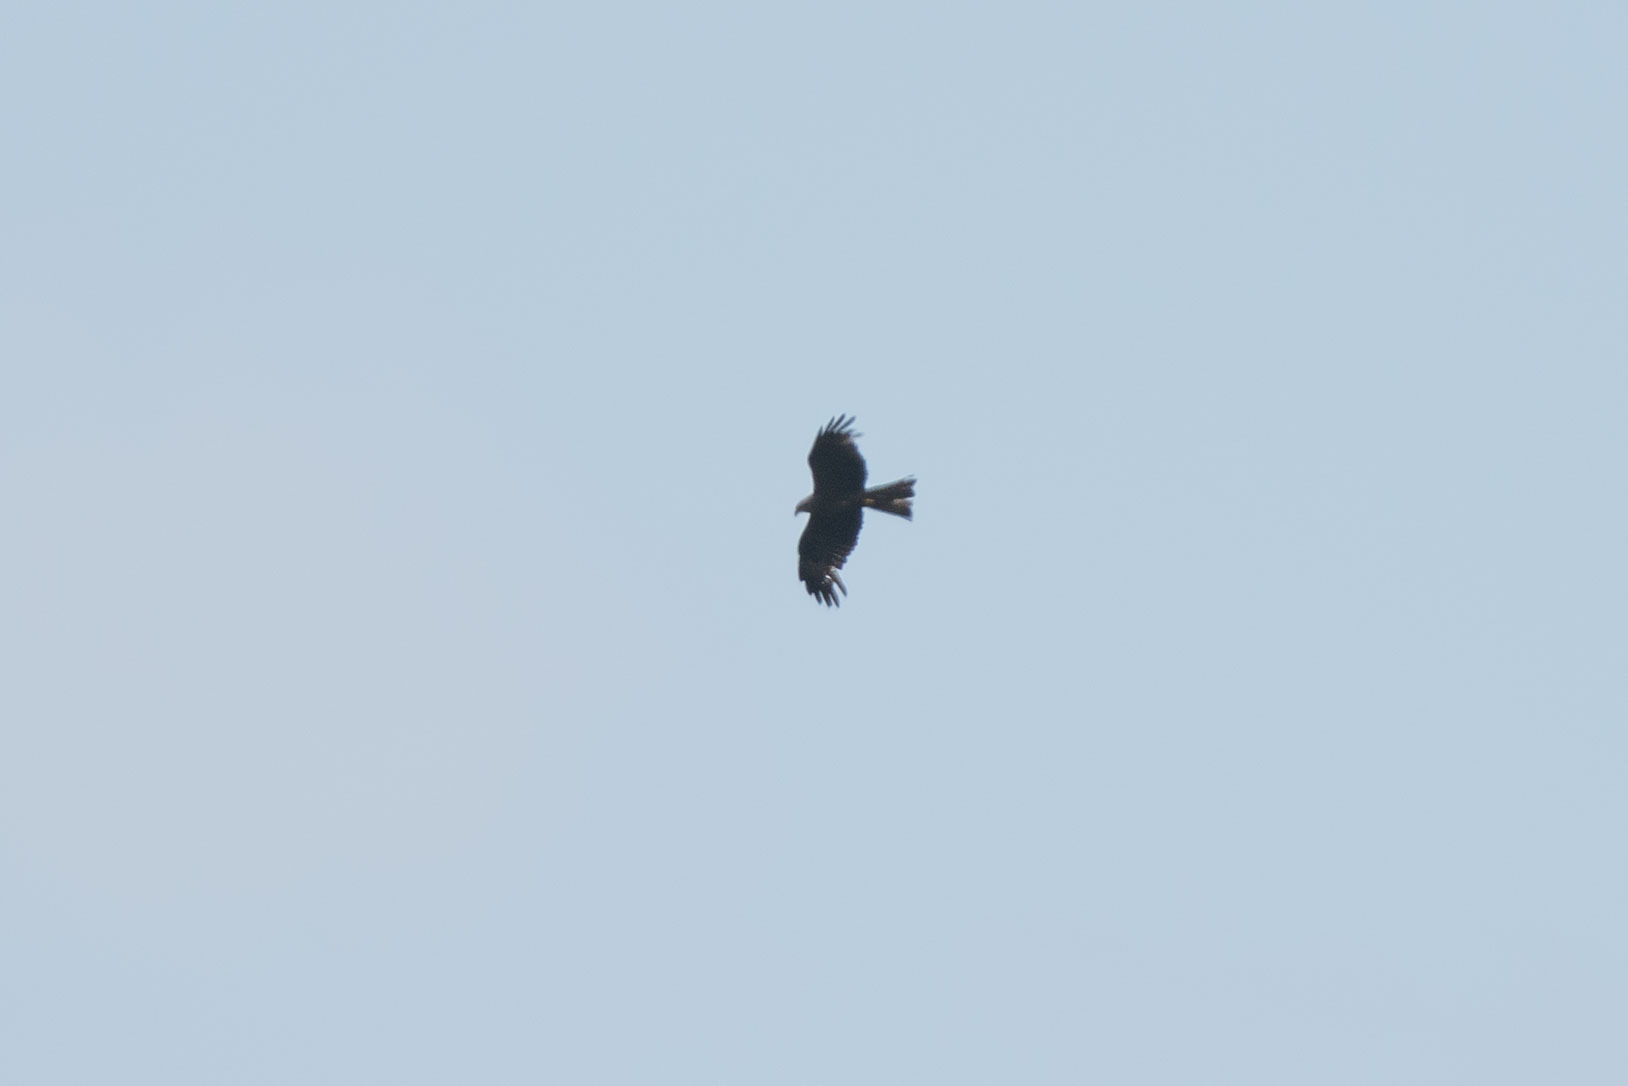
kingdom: Animalia
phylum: Chordata
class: Aves
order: Accipitriformes
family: Accipitridae
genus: Milvus
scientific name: Milvus migrans
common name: Black kite
